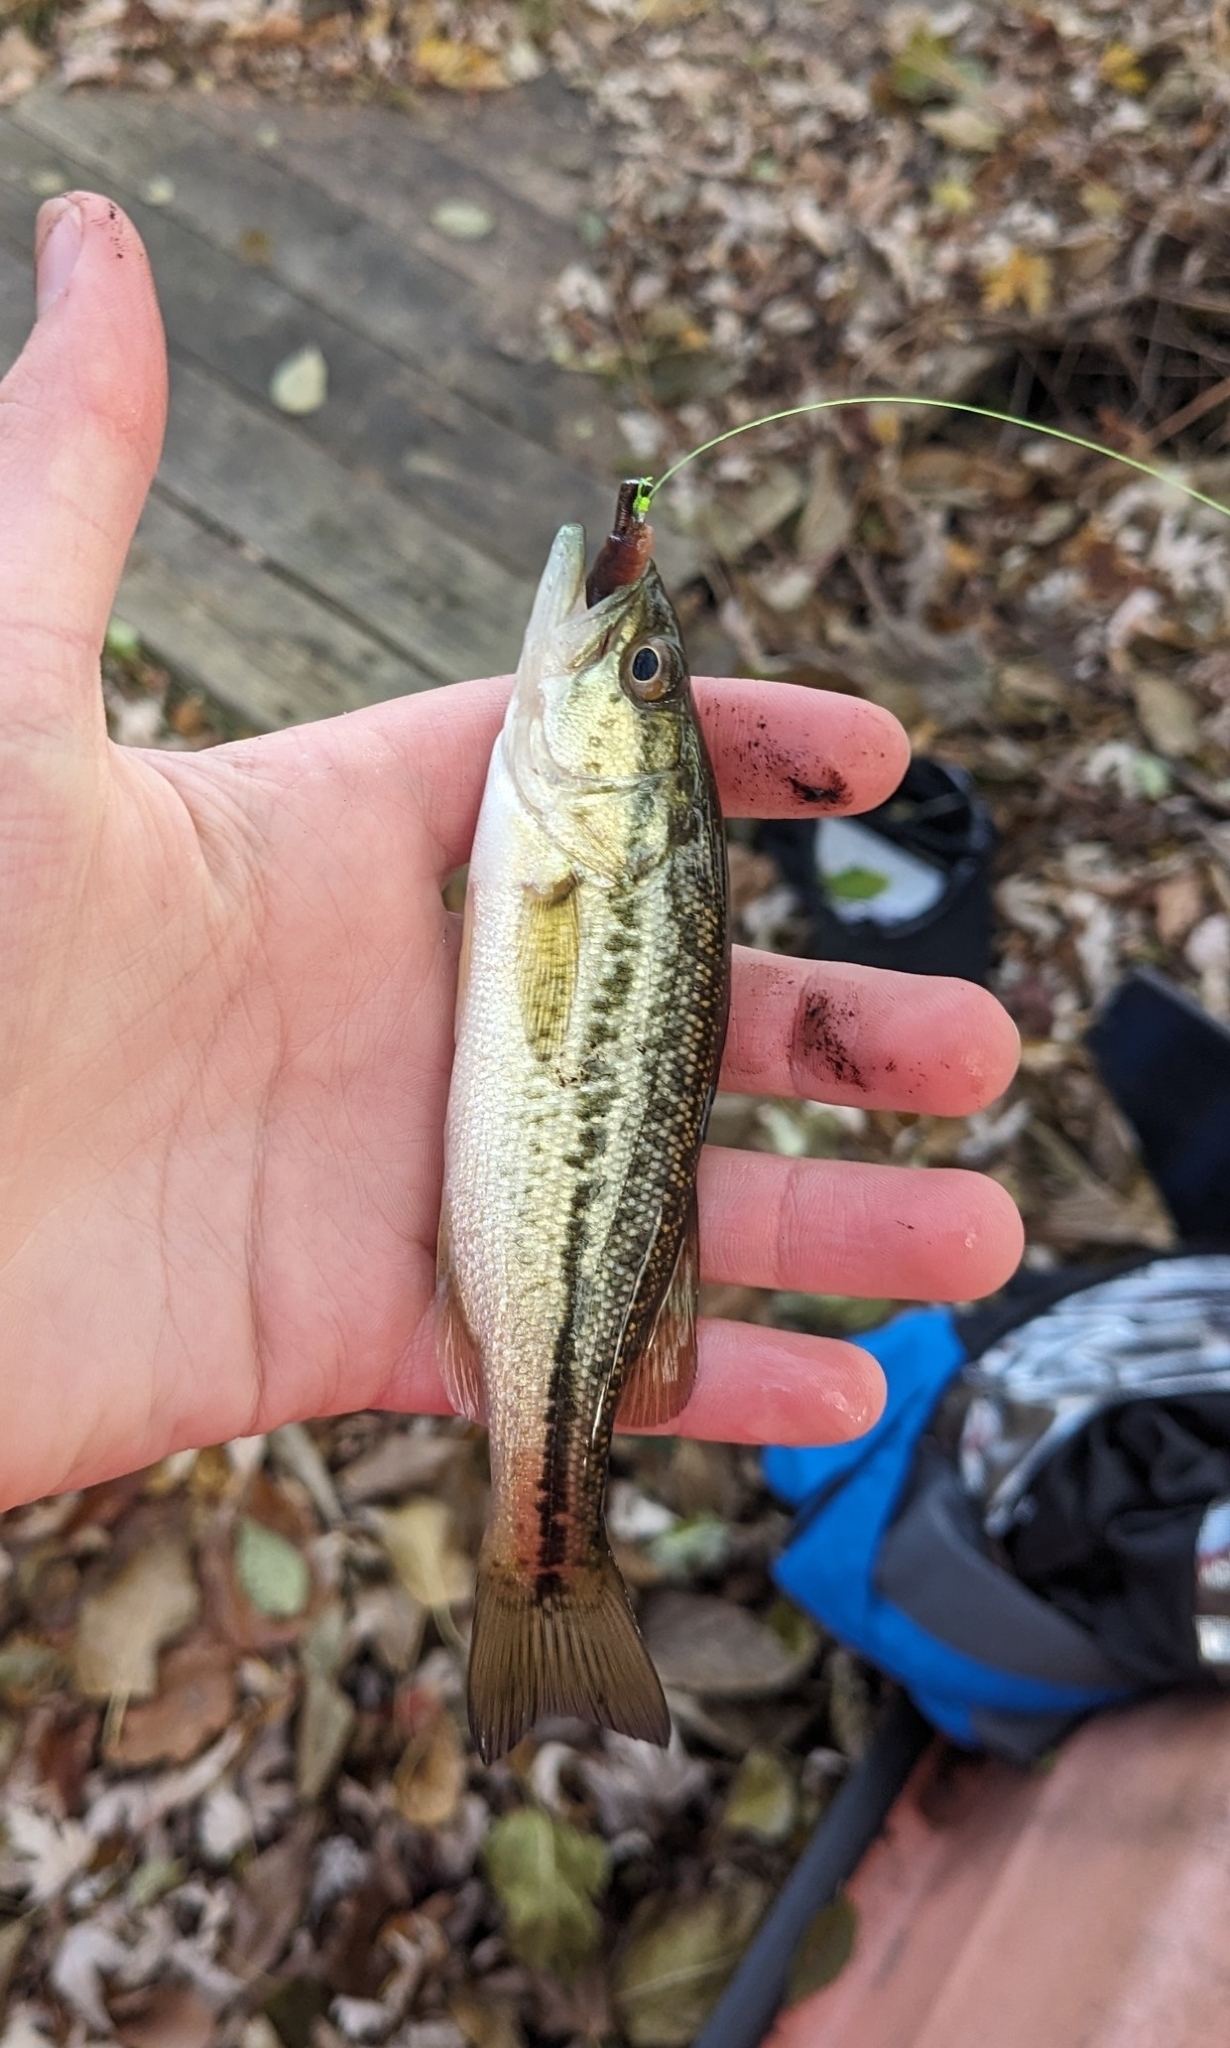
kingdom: Animalia
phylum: Chordata
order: Perciformes
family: Centrarchidae
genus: Micropterus
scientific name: Micropterus
